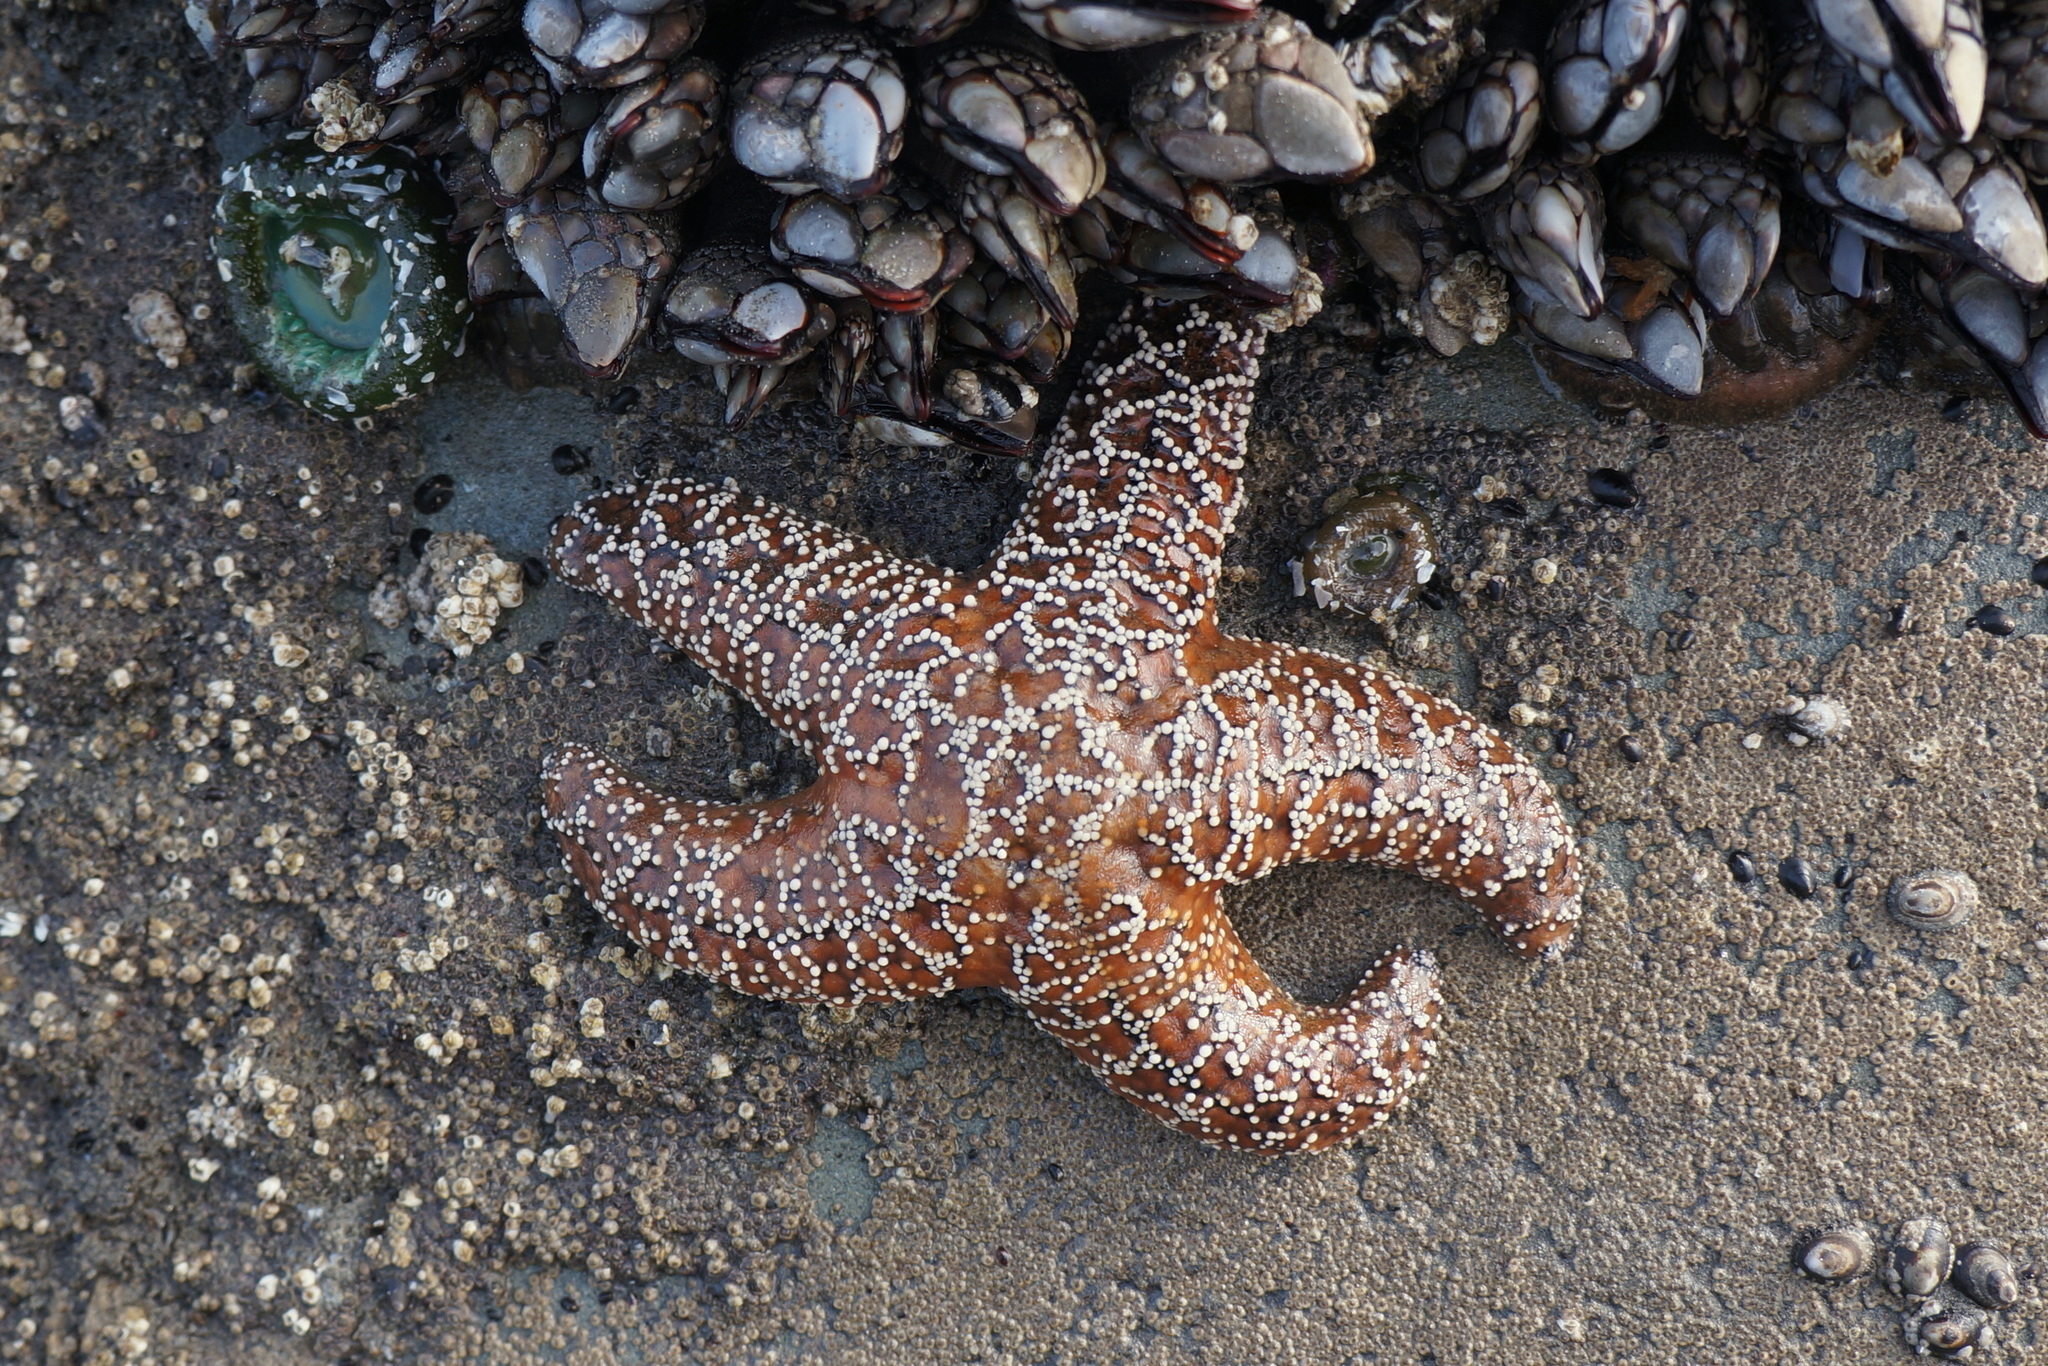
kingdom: Animalia
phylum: Echinodermata
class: Asteroidea
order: Forcipulatida
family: Asteriidae
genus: Pisaster
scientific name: Pisaster ochraceus
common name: Ochre stars
